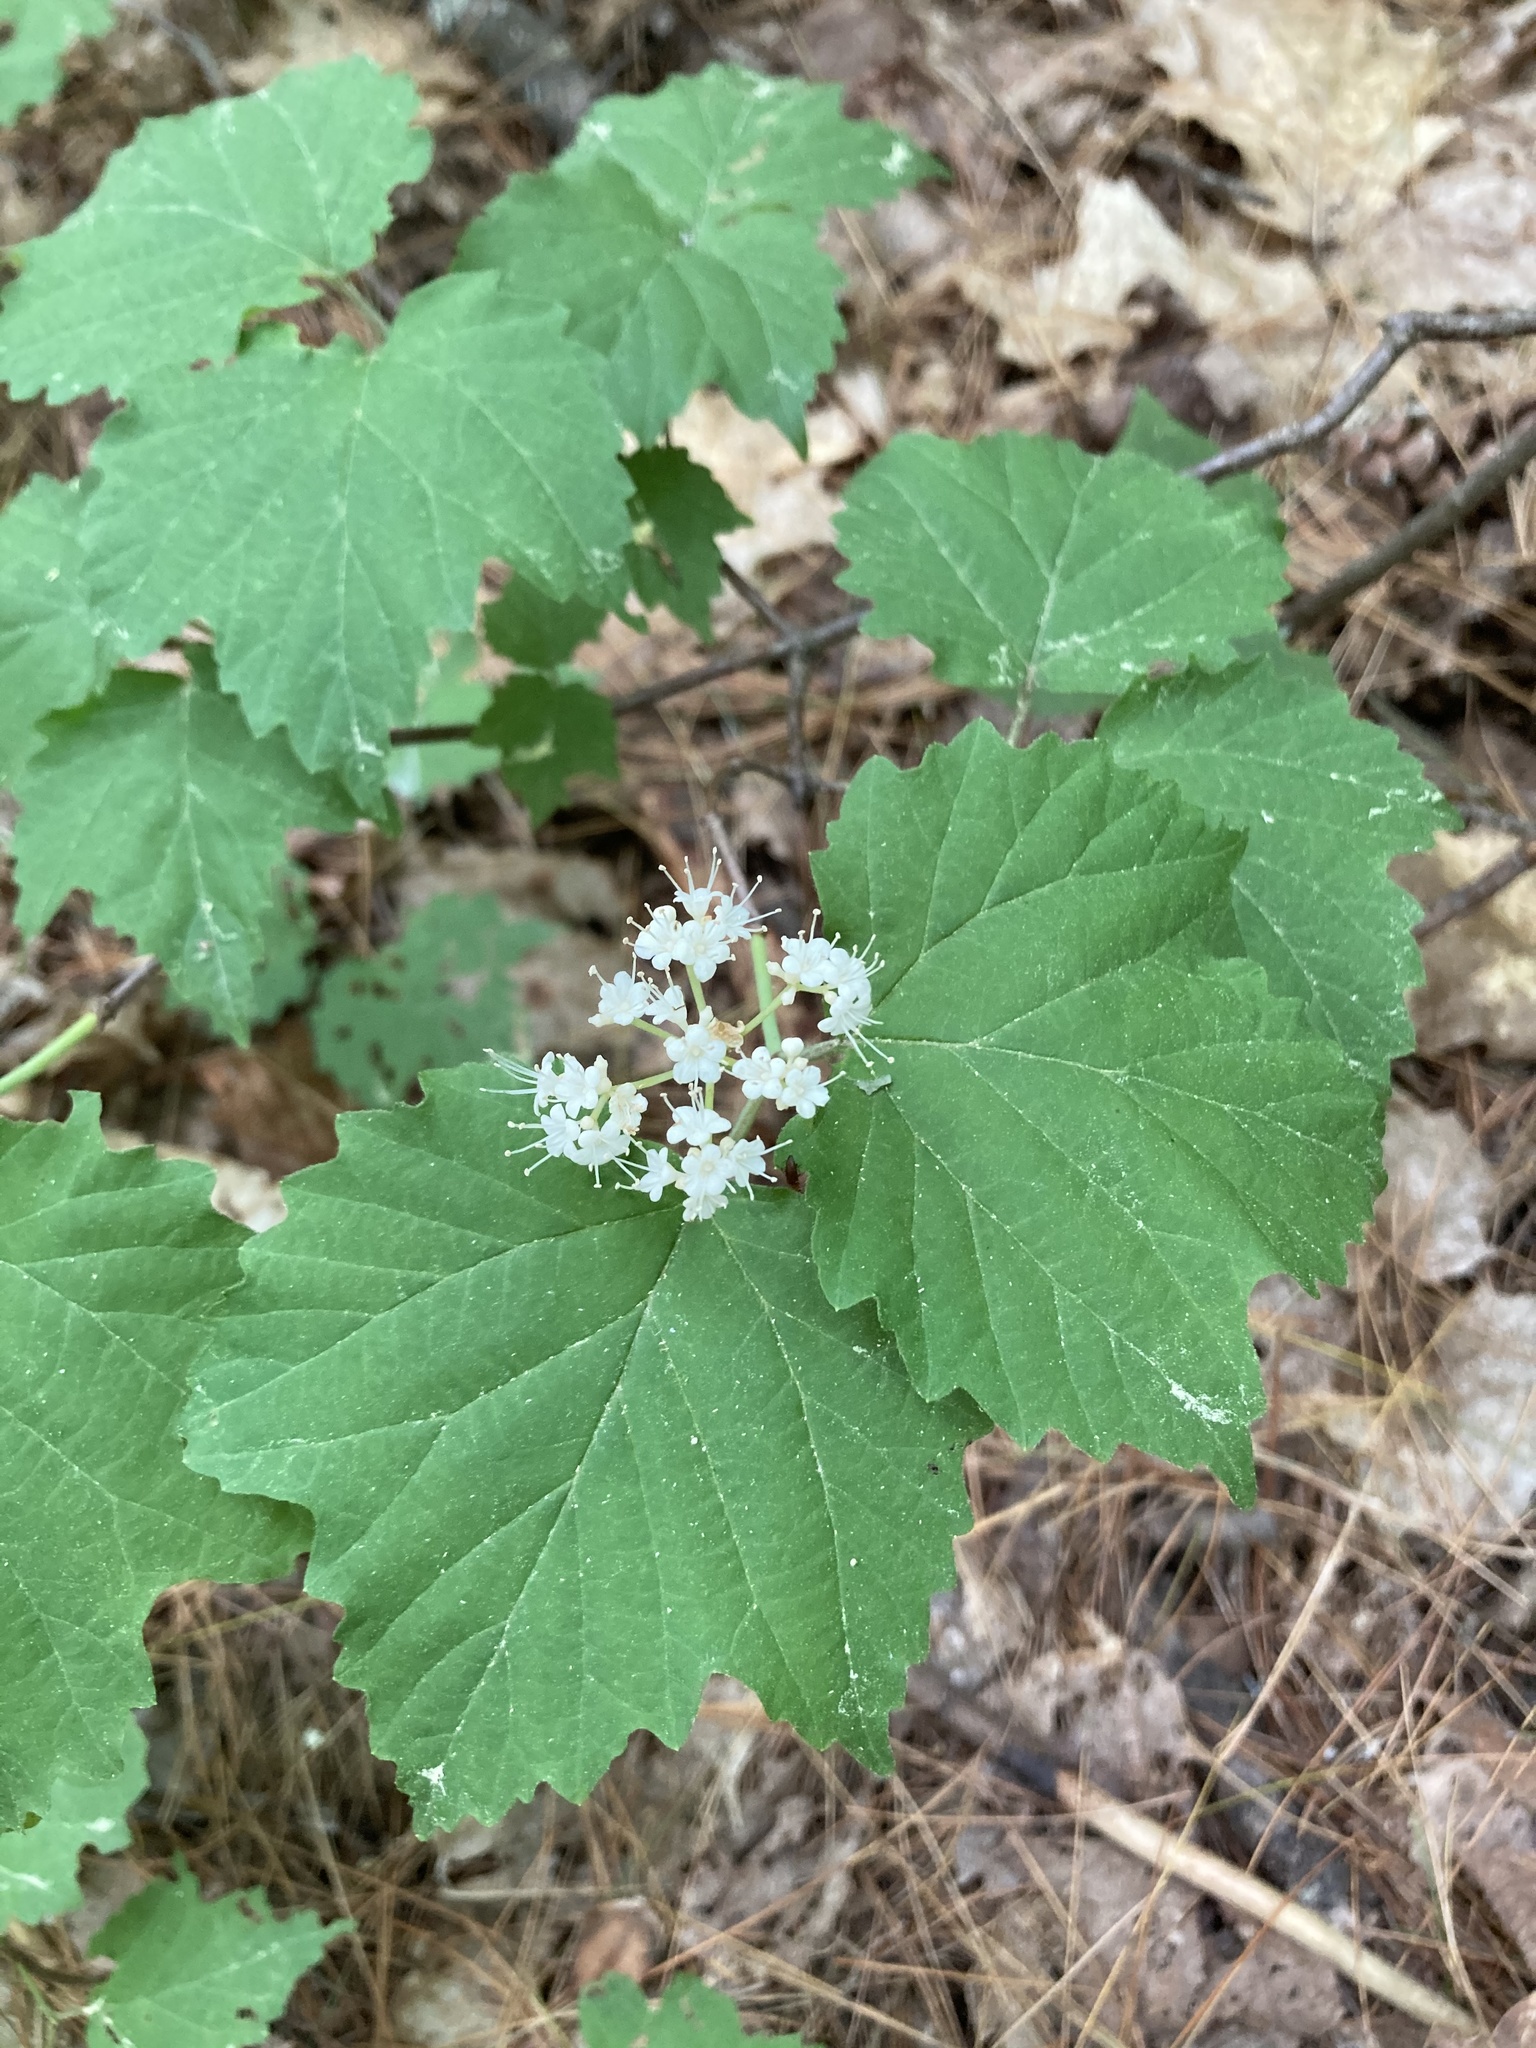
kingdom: Plantae
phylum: Tracheophyta
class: Magnoliopsida
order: Dipsacales
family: Viburnaceae
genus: Viburnum
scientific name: Viburnum acerifolium
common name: Dockmackie
